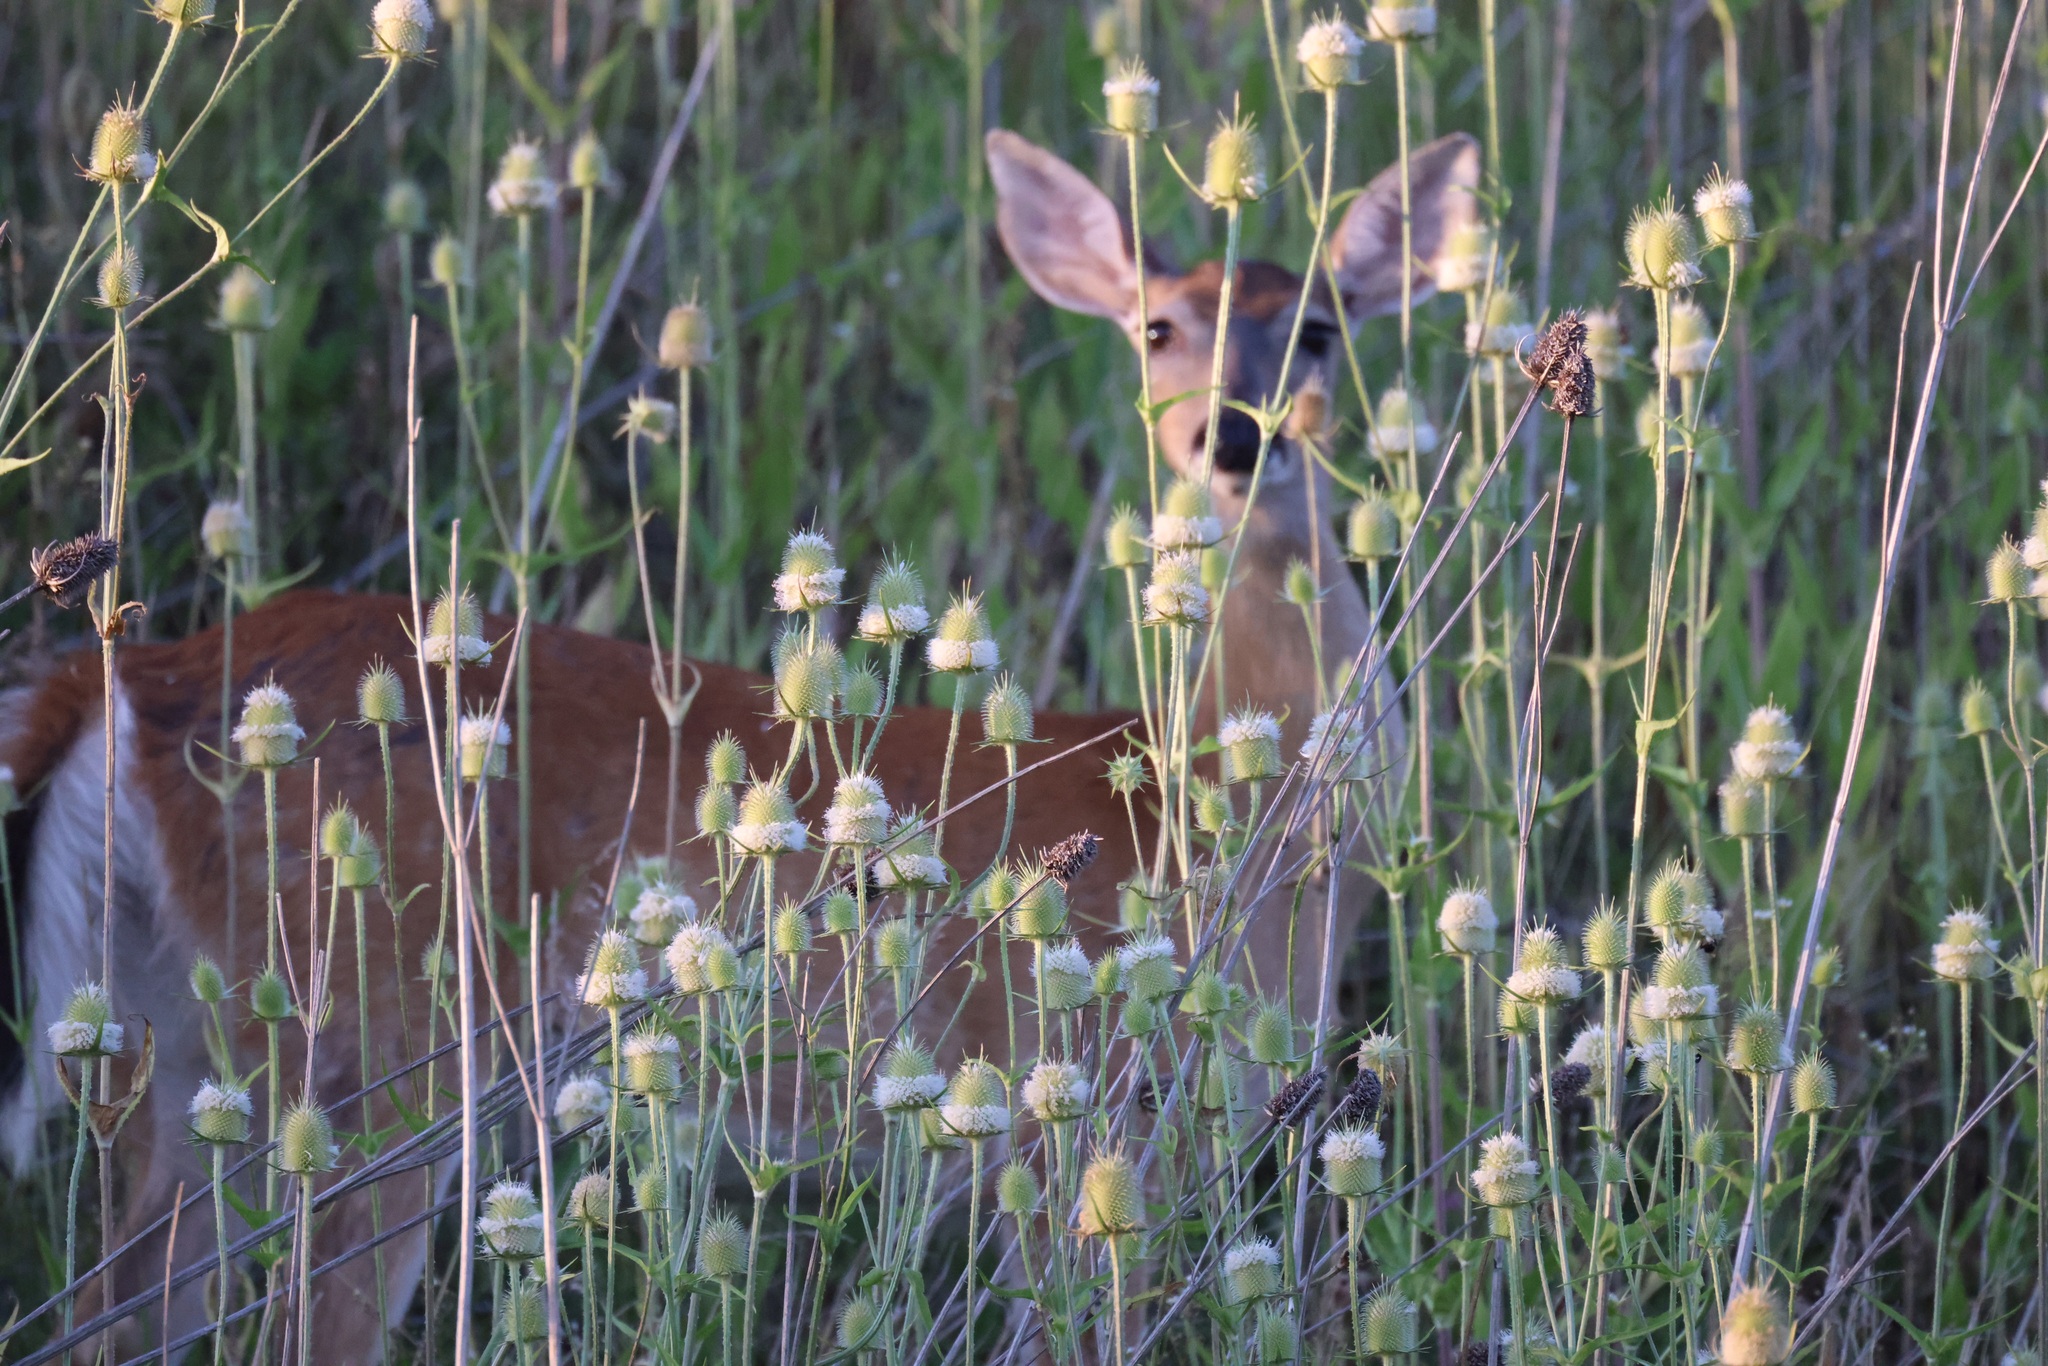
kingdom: Animalia
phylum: Chordata
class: Mammalia
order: Artiodactyla
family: Cervidae
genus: Odocoileus
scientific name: Odocoileus virginianus
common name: White-tailed deer
